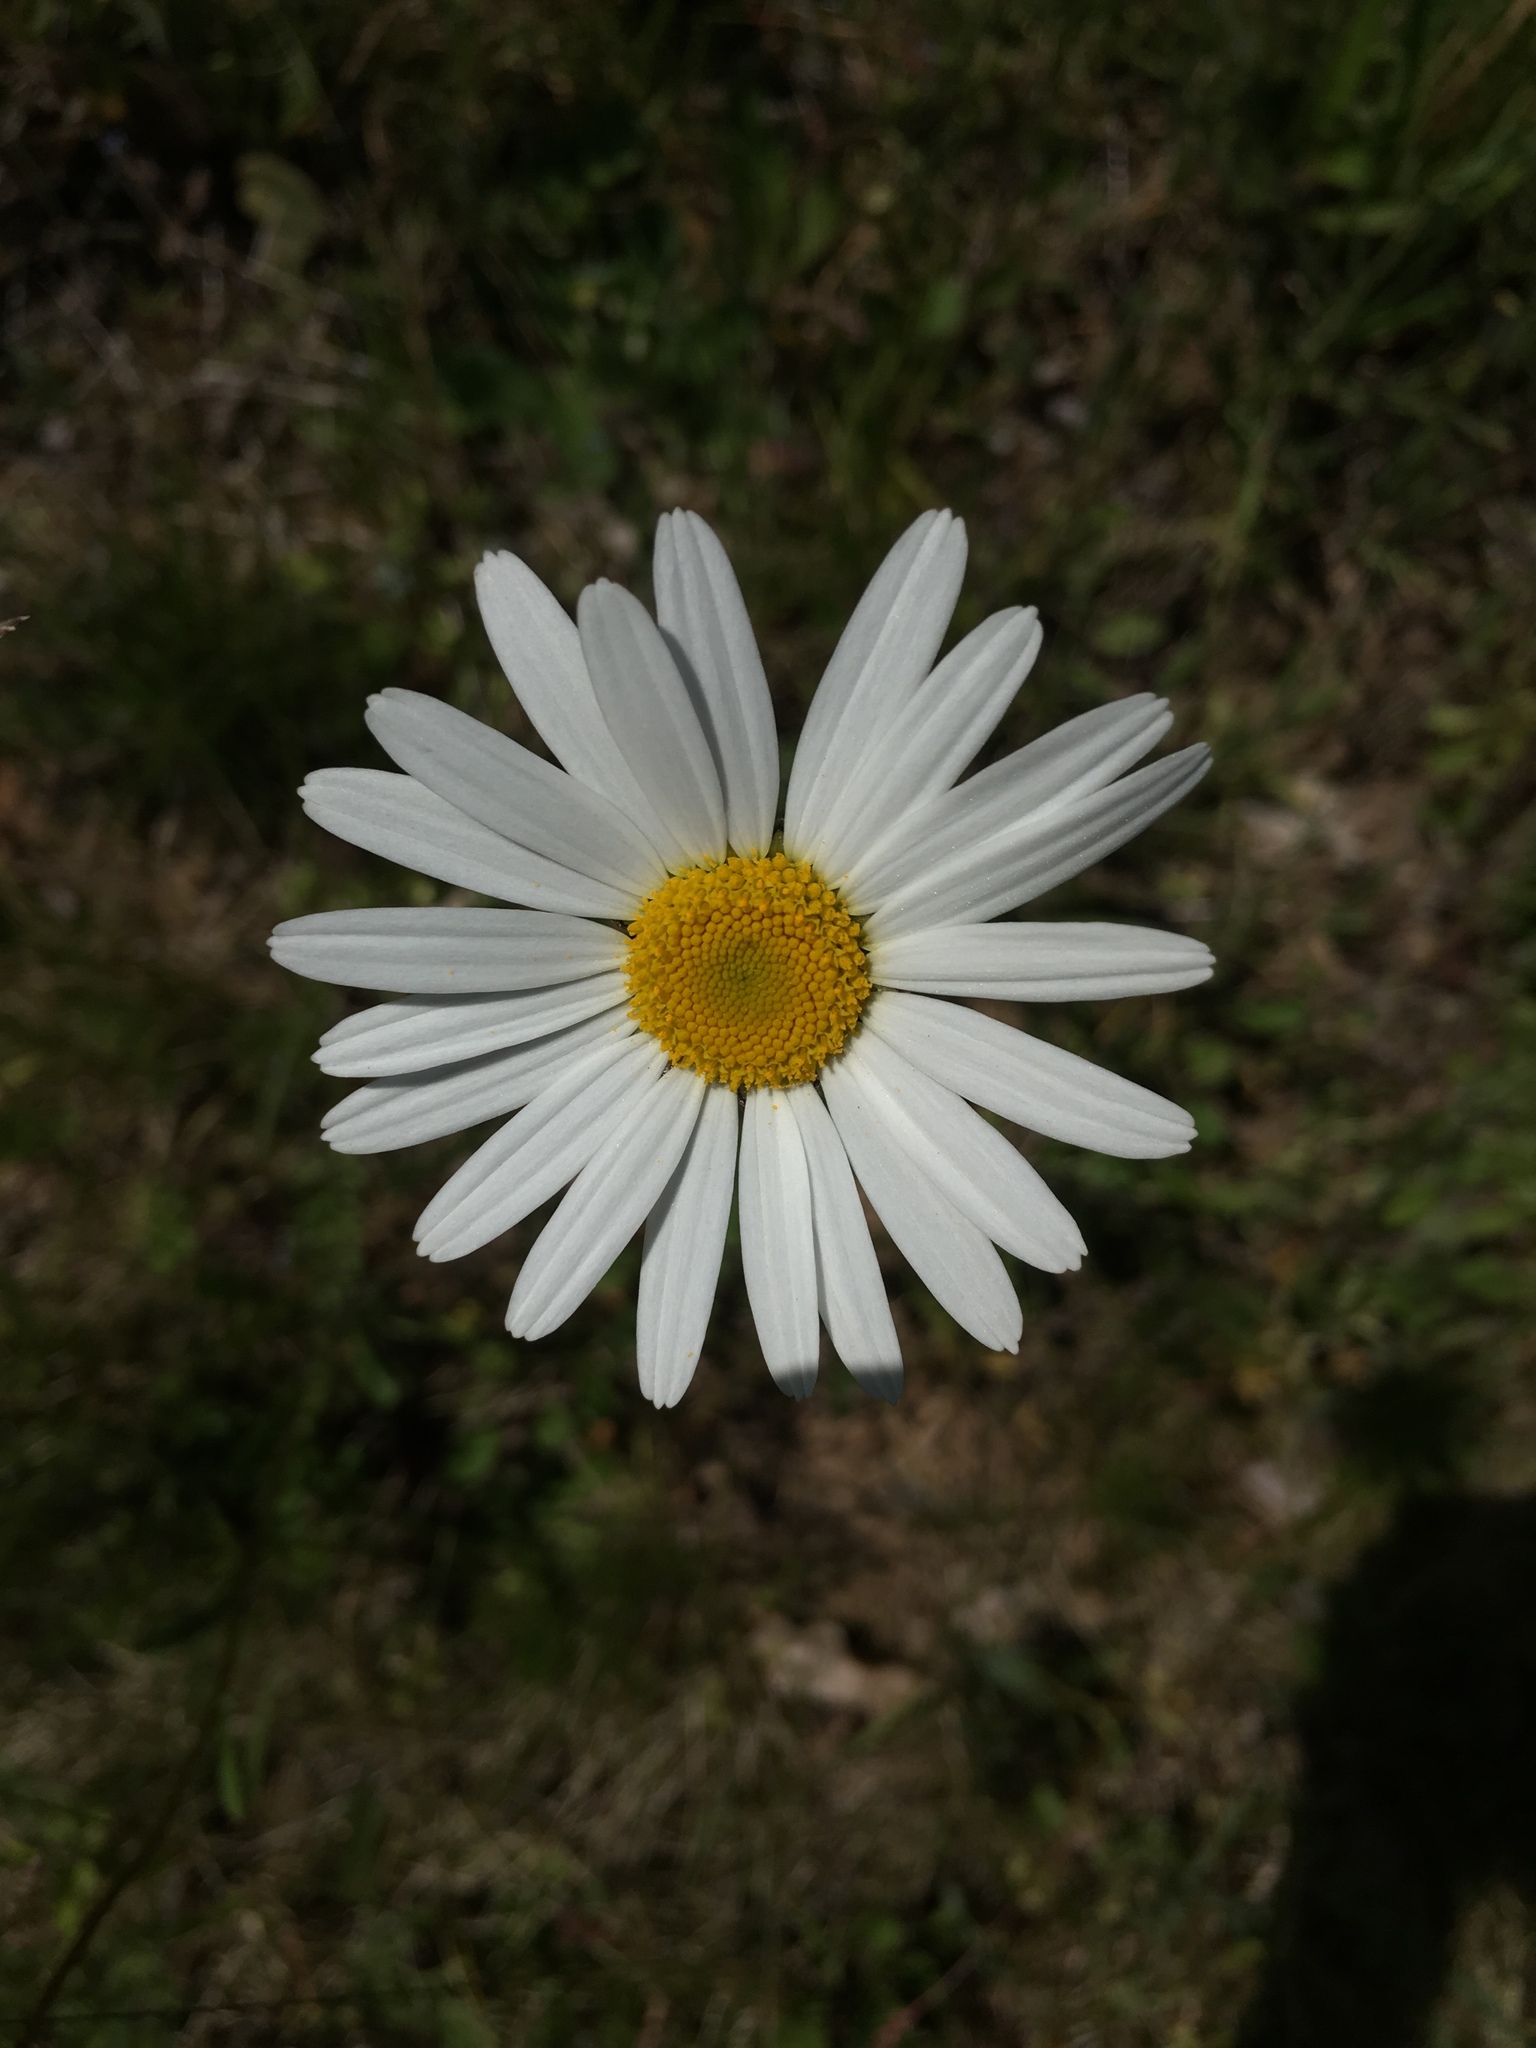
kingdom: Plantae
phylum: Tracheophyta
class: Magnoliopsida
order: Asterales
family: Asteraceae
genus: Leucanthemum
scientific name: Leucanthemum vulgare
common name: Oxeye daisy
